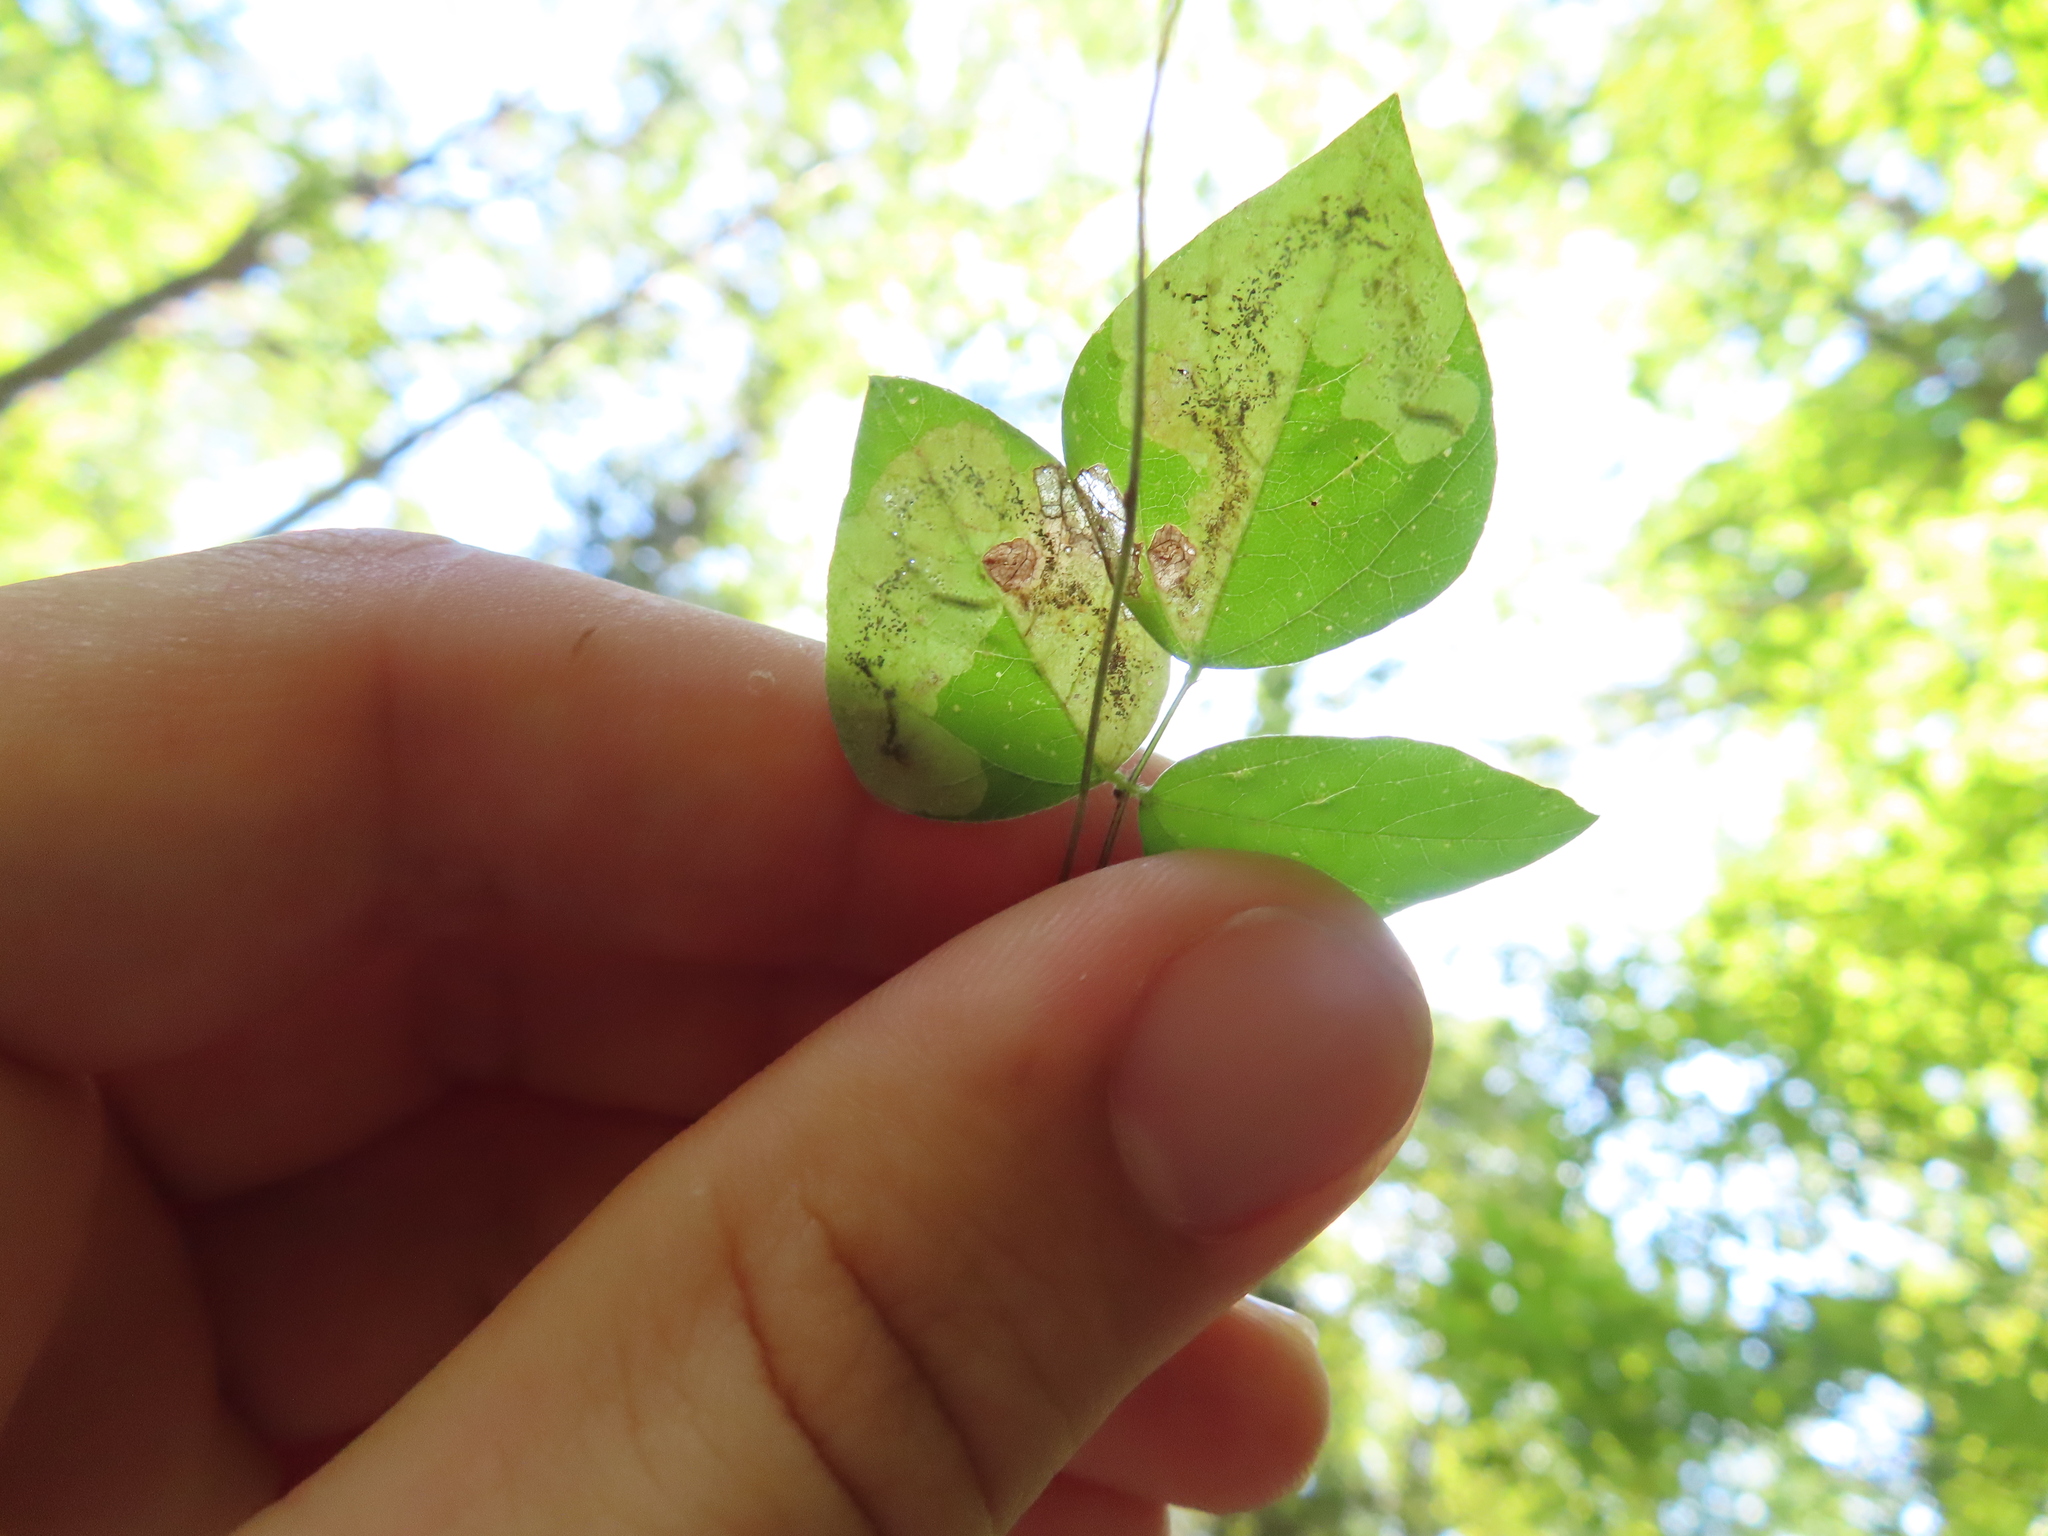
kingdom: Animalia
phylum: Arthropoda
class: Insecta
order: Lepidoptera
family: Gracillariidae
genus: Leucanthiza
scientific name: Leucanthiza amphicarpeaefoliella
